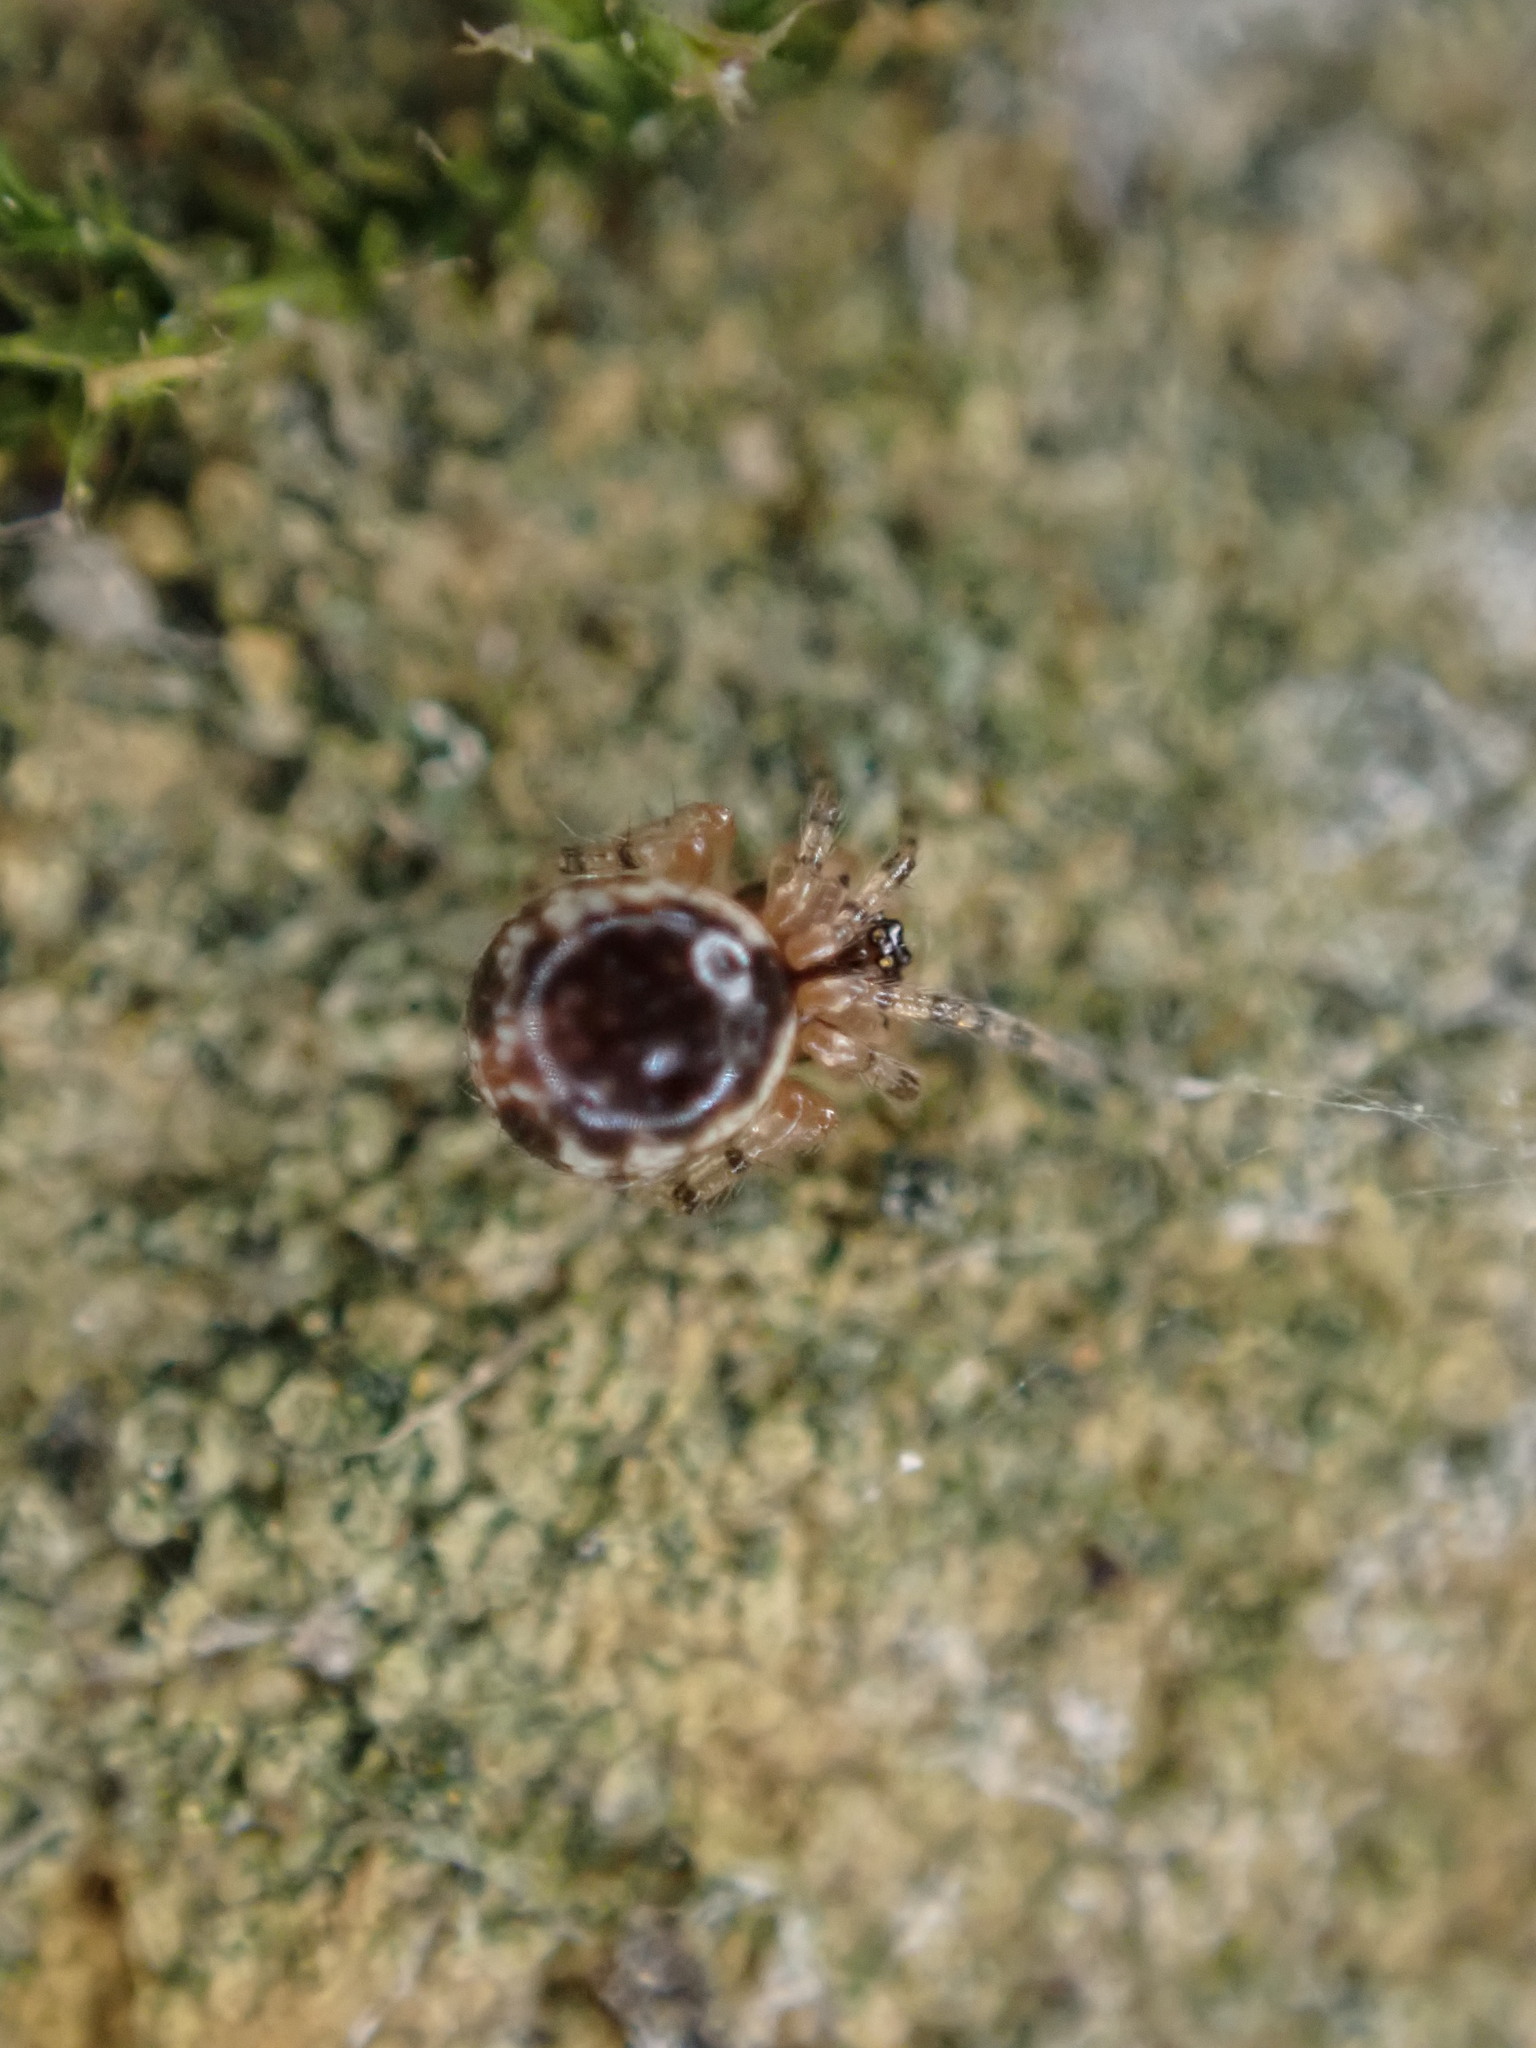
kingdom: Animalia
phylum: Arthropoda
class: Arachnida
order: Araneae
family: Theridiidae
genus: Sardinidion
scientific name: Sardinidion blackwalli
